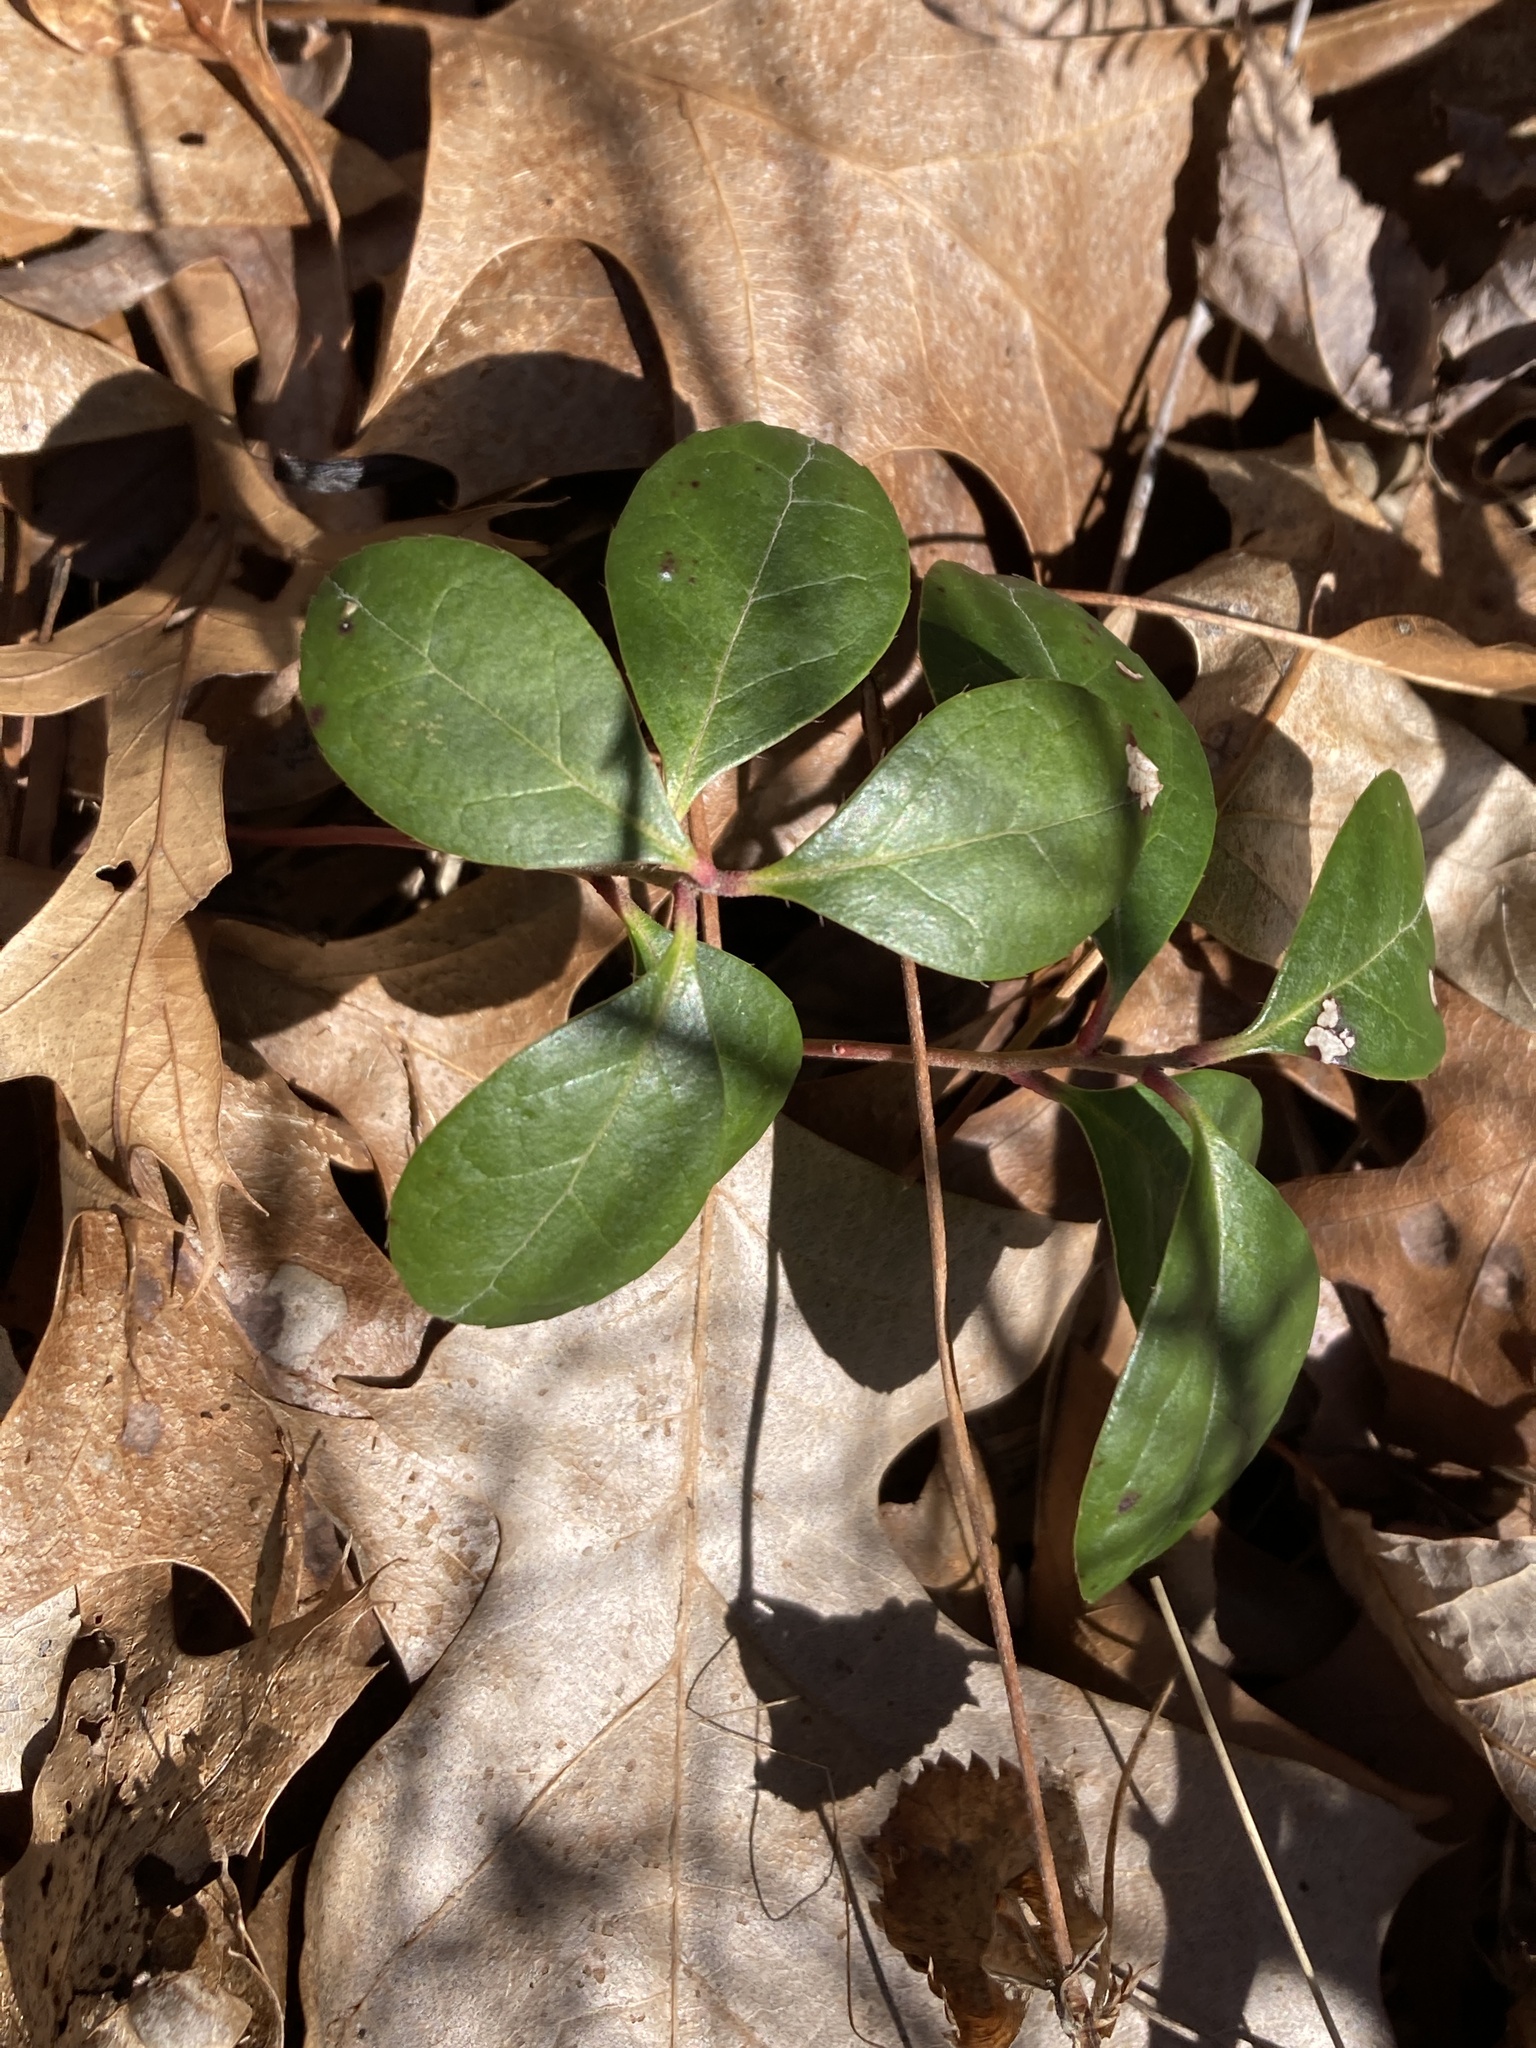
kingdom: Plantae
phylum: Tracheophyta
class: Magnoliopsida
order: Ericales
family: Ericaceae
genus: Gaultheria
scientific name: Gaultheria procumbens
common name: Checkerberry
